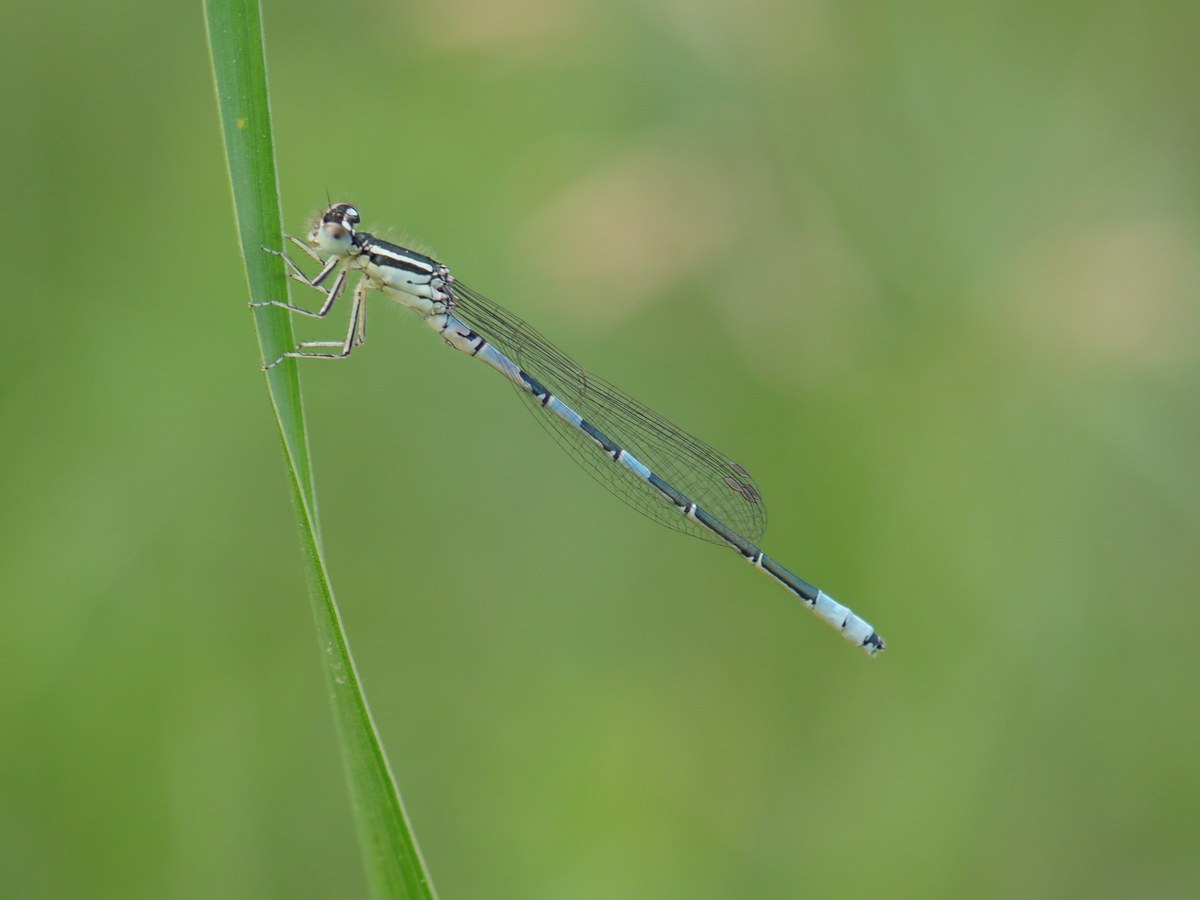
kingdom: Animalia
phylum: Arthropoda
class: Insecta
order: Odonata
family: Coenagrionidae
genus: Coenagrion
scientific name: Coenagrion scitulum
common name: Dainty bluet
